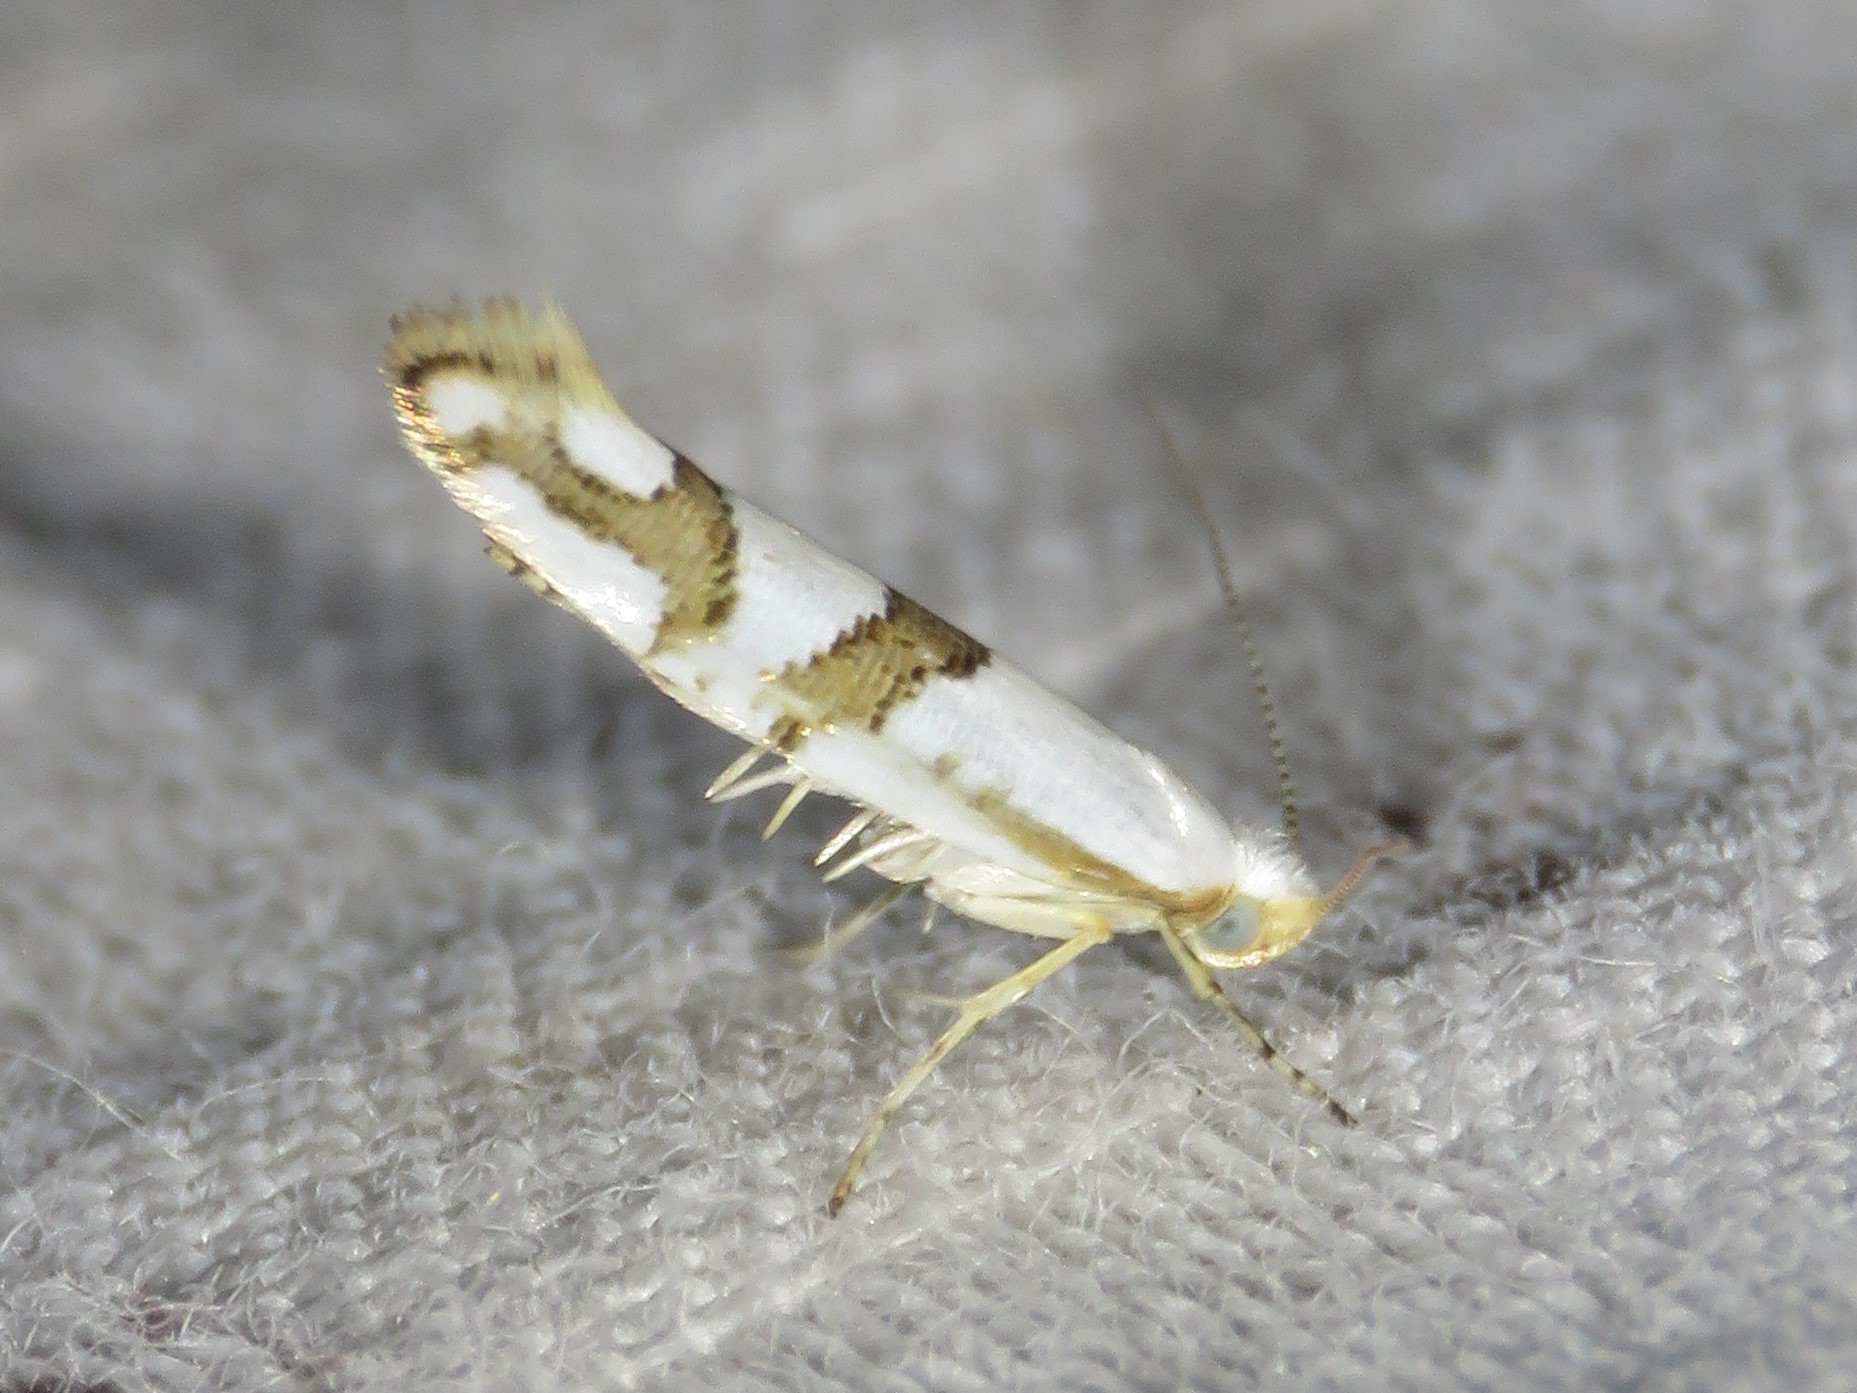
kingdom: Animalia
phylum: Arthropoda
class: Insecta
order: Lepidoptera
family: Argyresthiidae
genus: Argyresthia
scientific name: Argyresthia oreasella
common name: Cherry shoot borer moth
